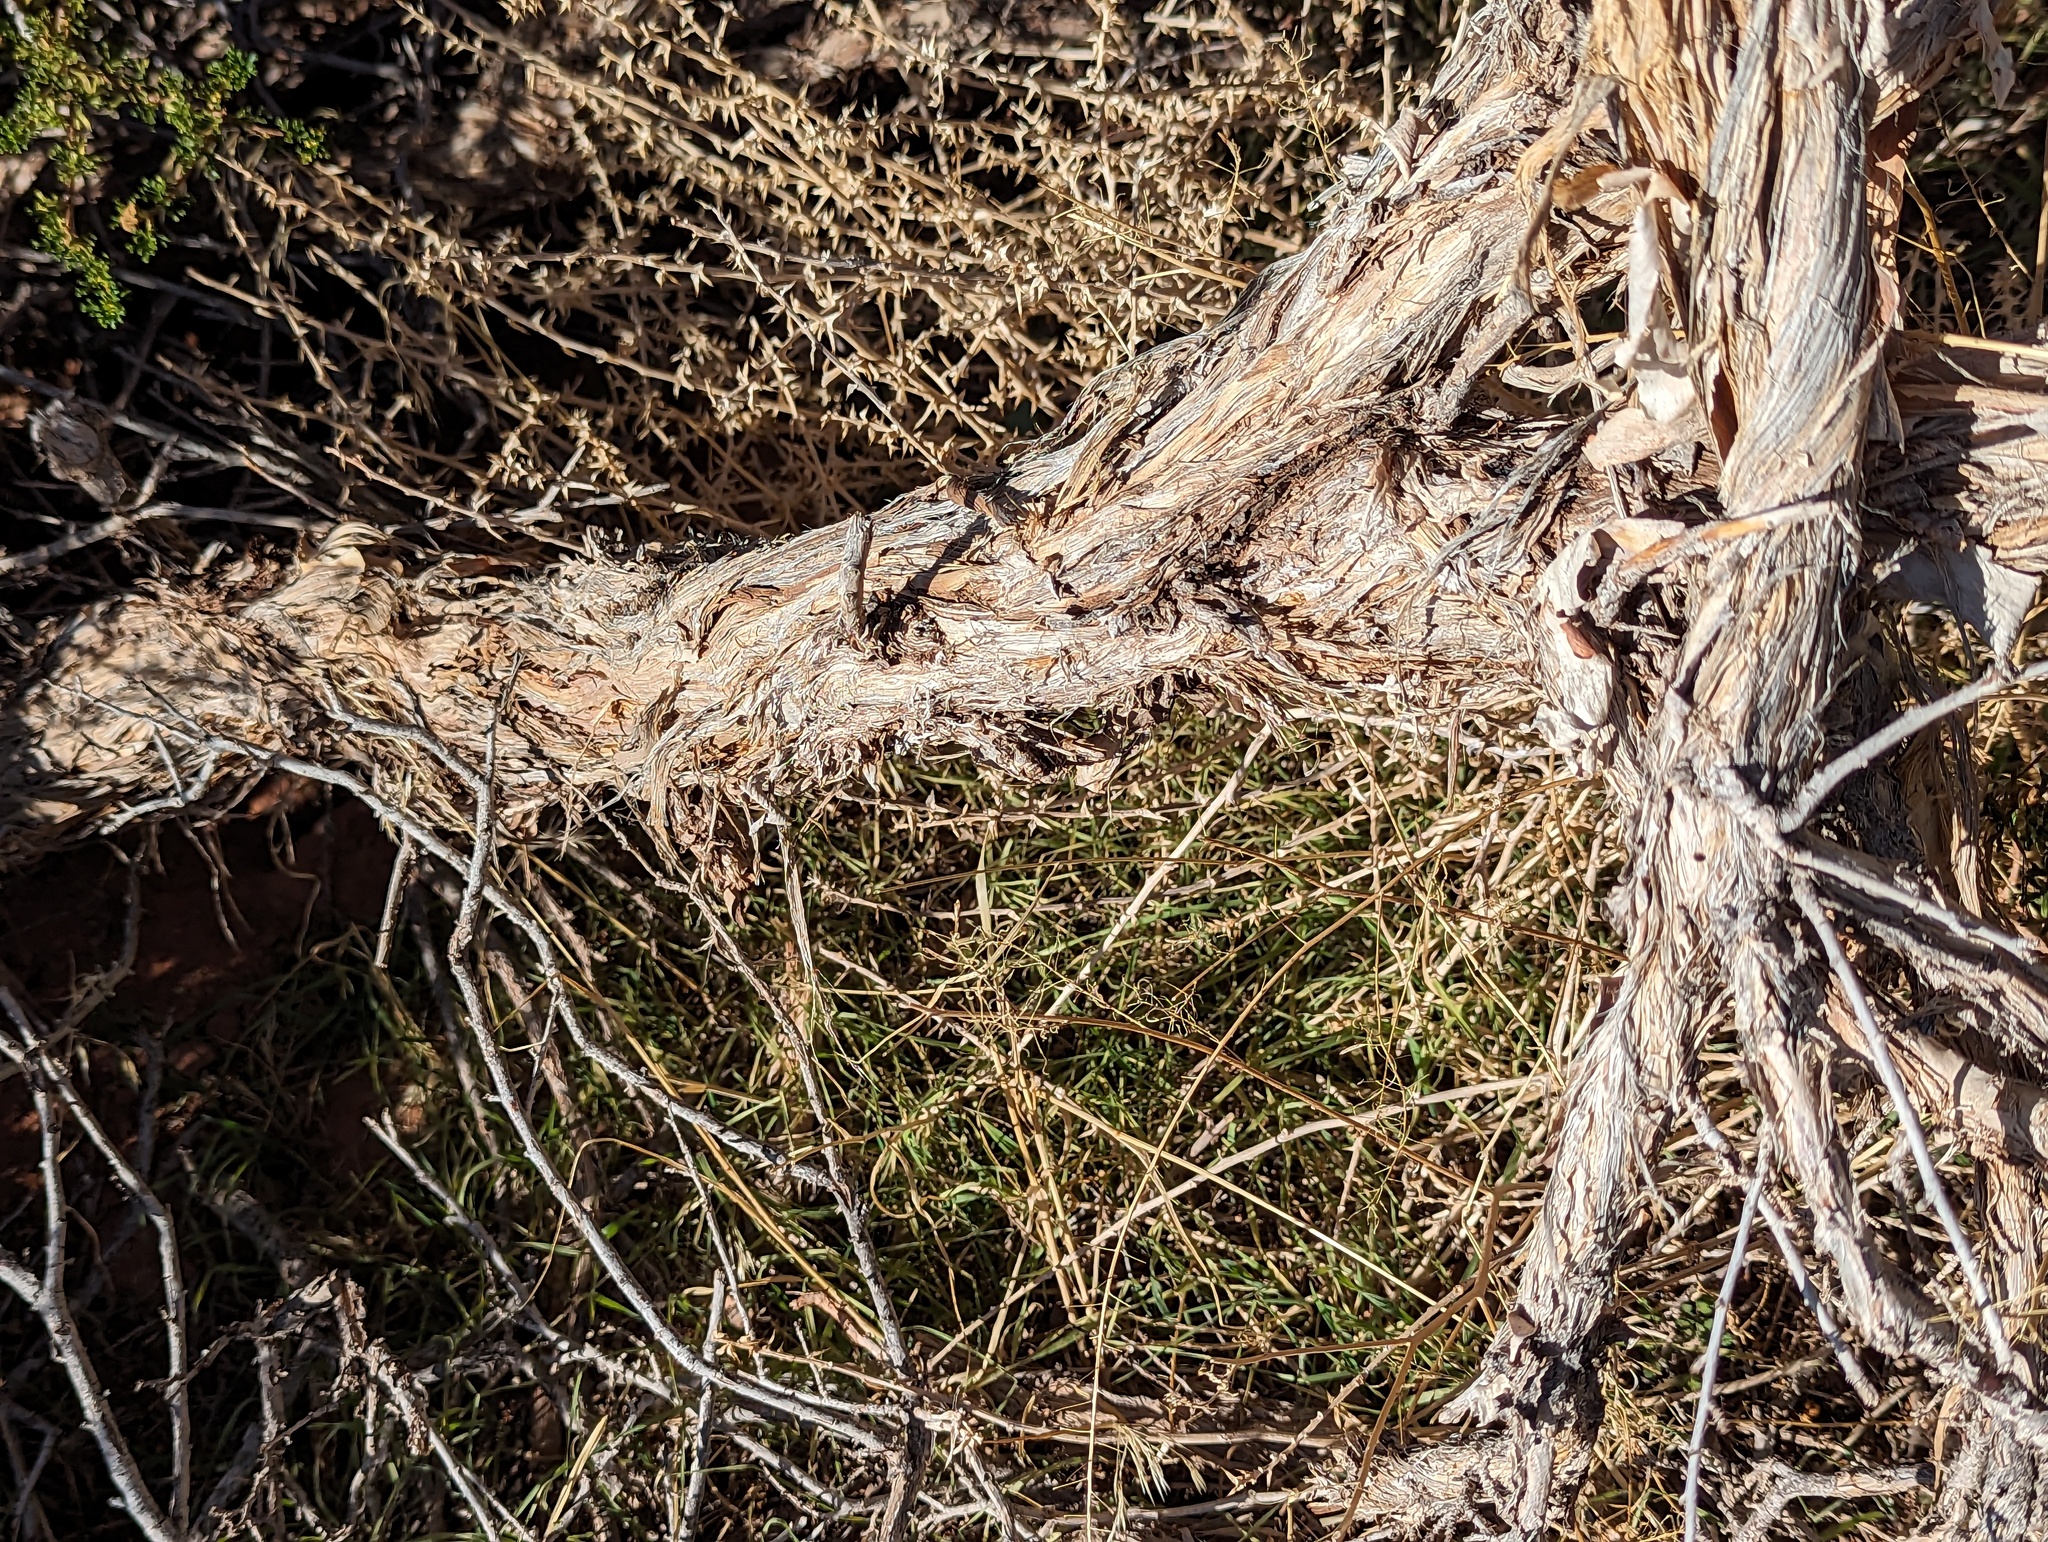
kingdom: Plantae
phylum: Tracheophyta
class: Magnoliopsida
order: Rosales
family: Rosaceae
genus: Purshia
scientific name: Purshia stansburiana
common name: Stansbury's cliffrose
